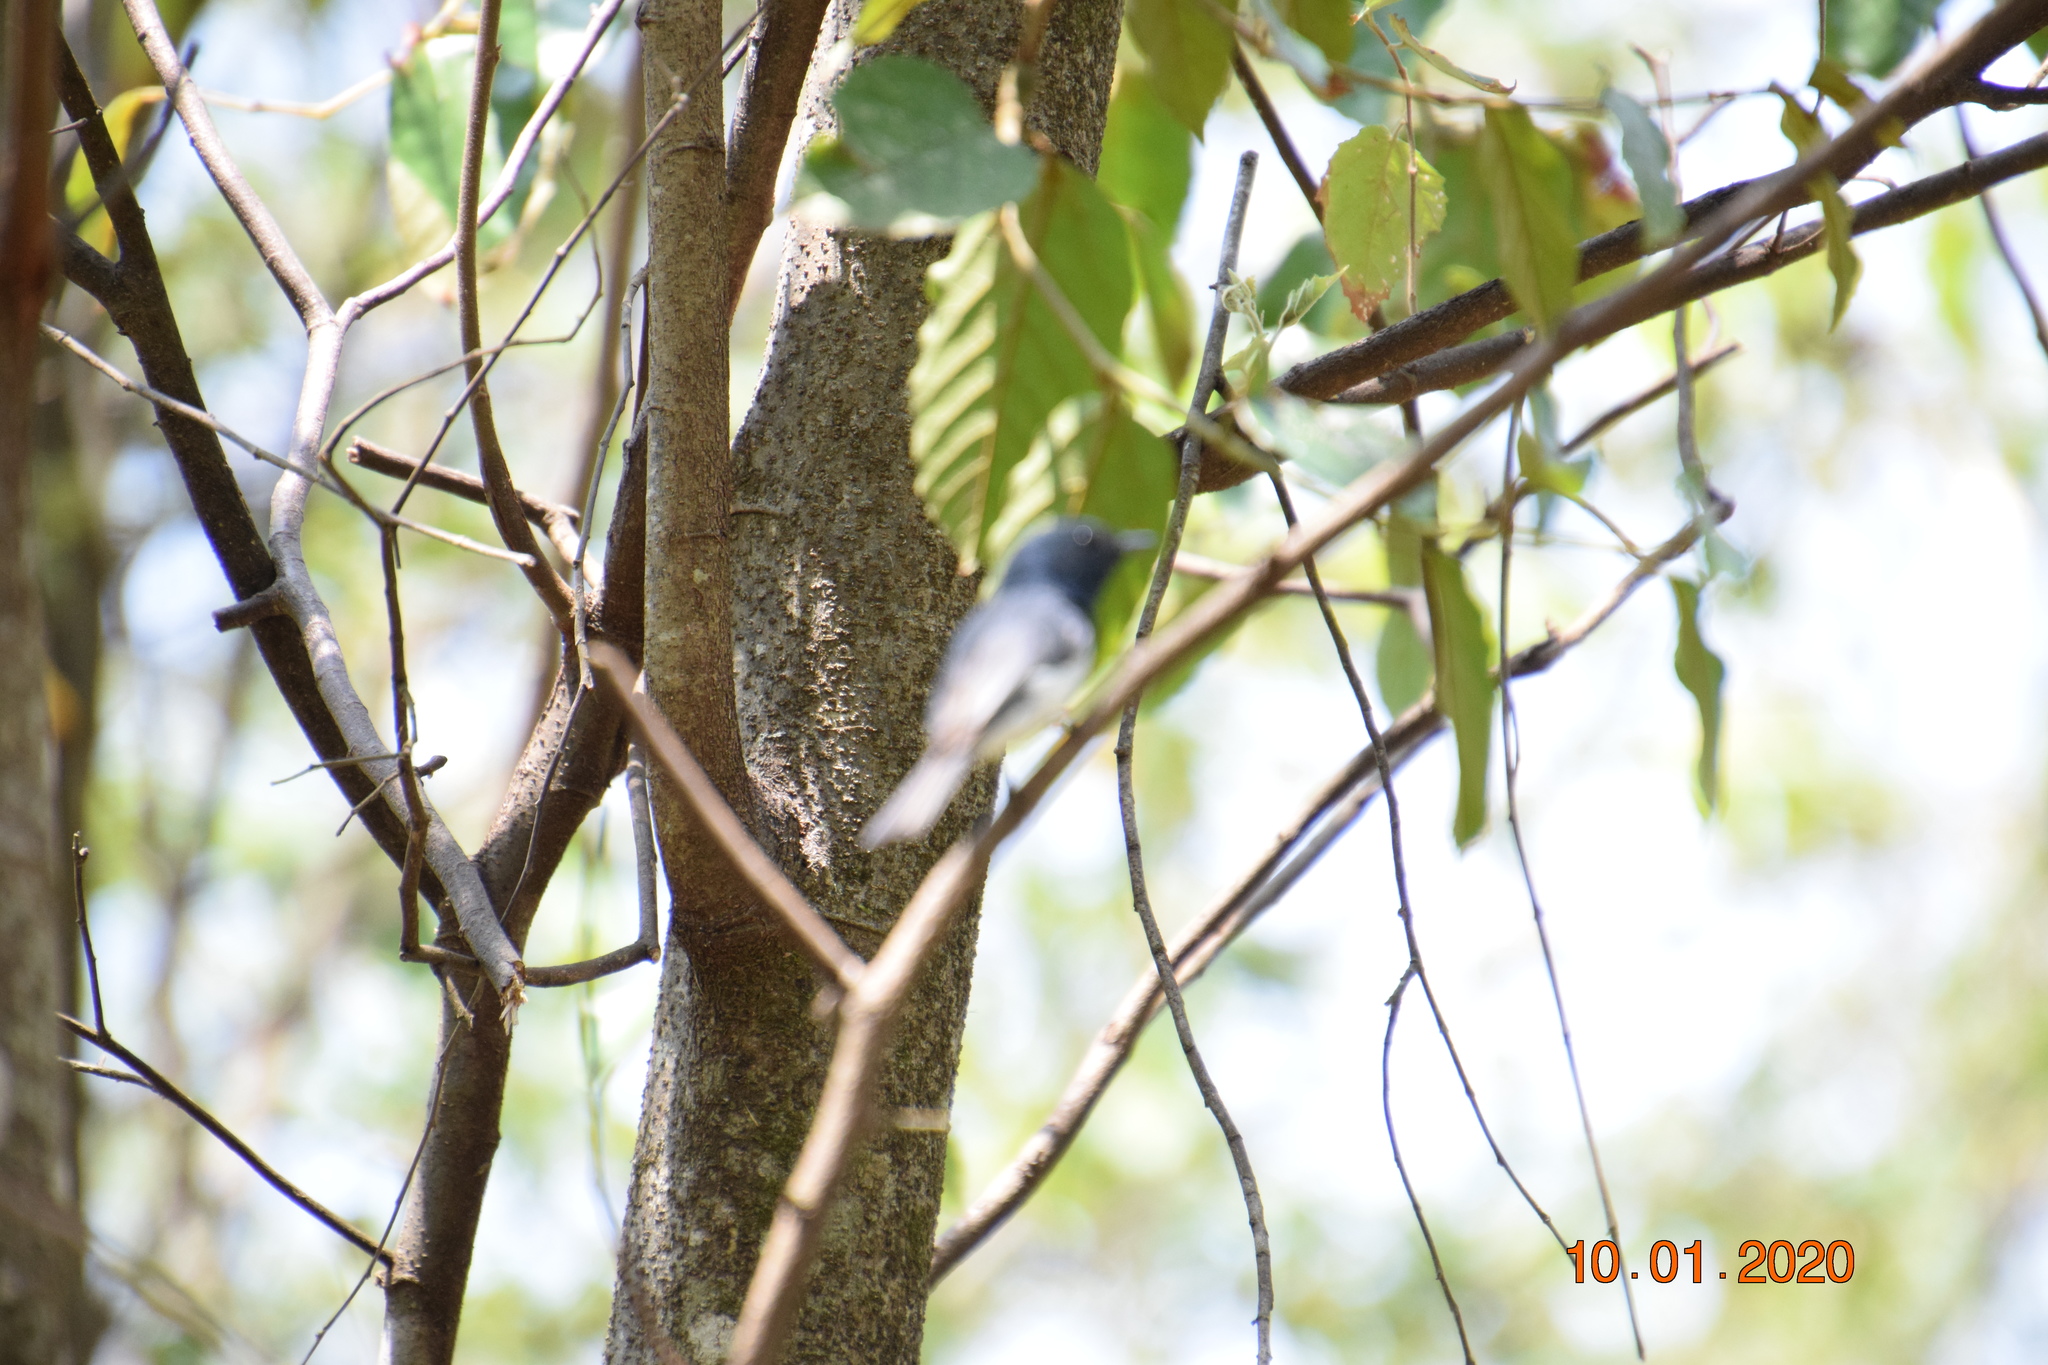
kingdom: Animalia
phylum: Chordata
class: Aves
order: Passeriformes
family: Monarchidae
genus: Myiagra
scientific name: Myiagra rubecula
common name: Leaden flycatcher
